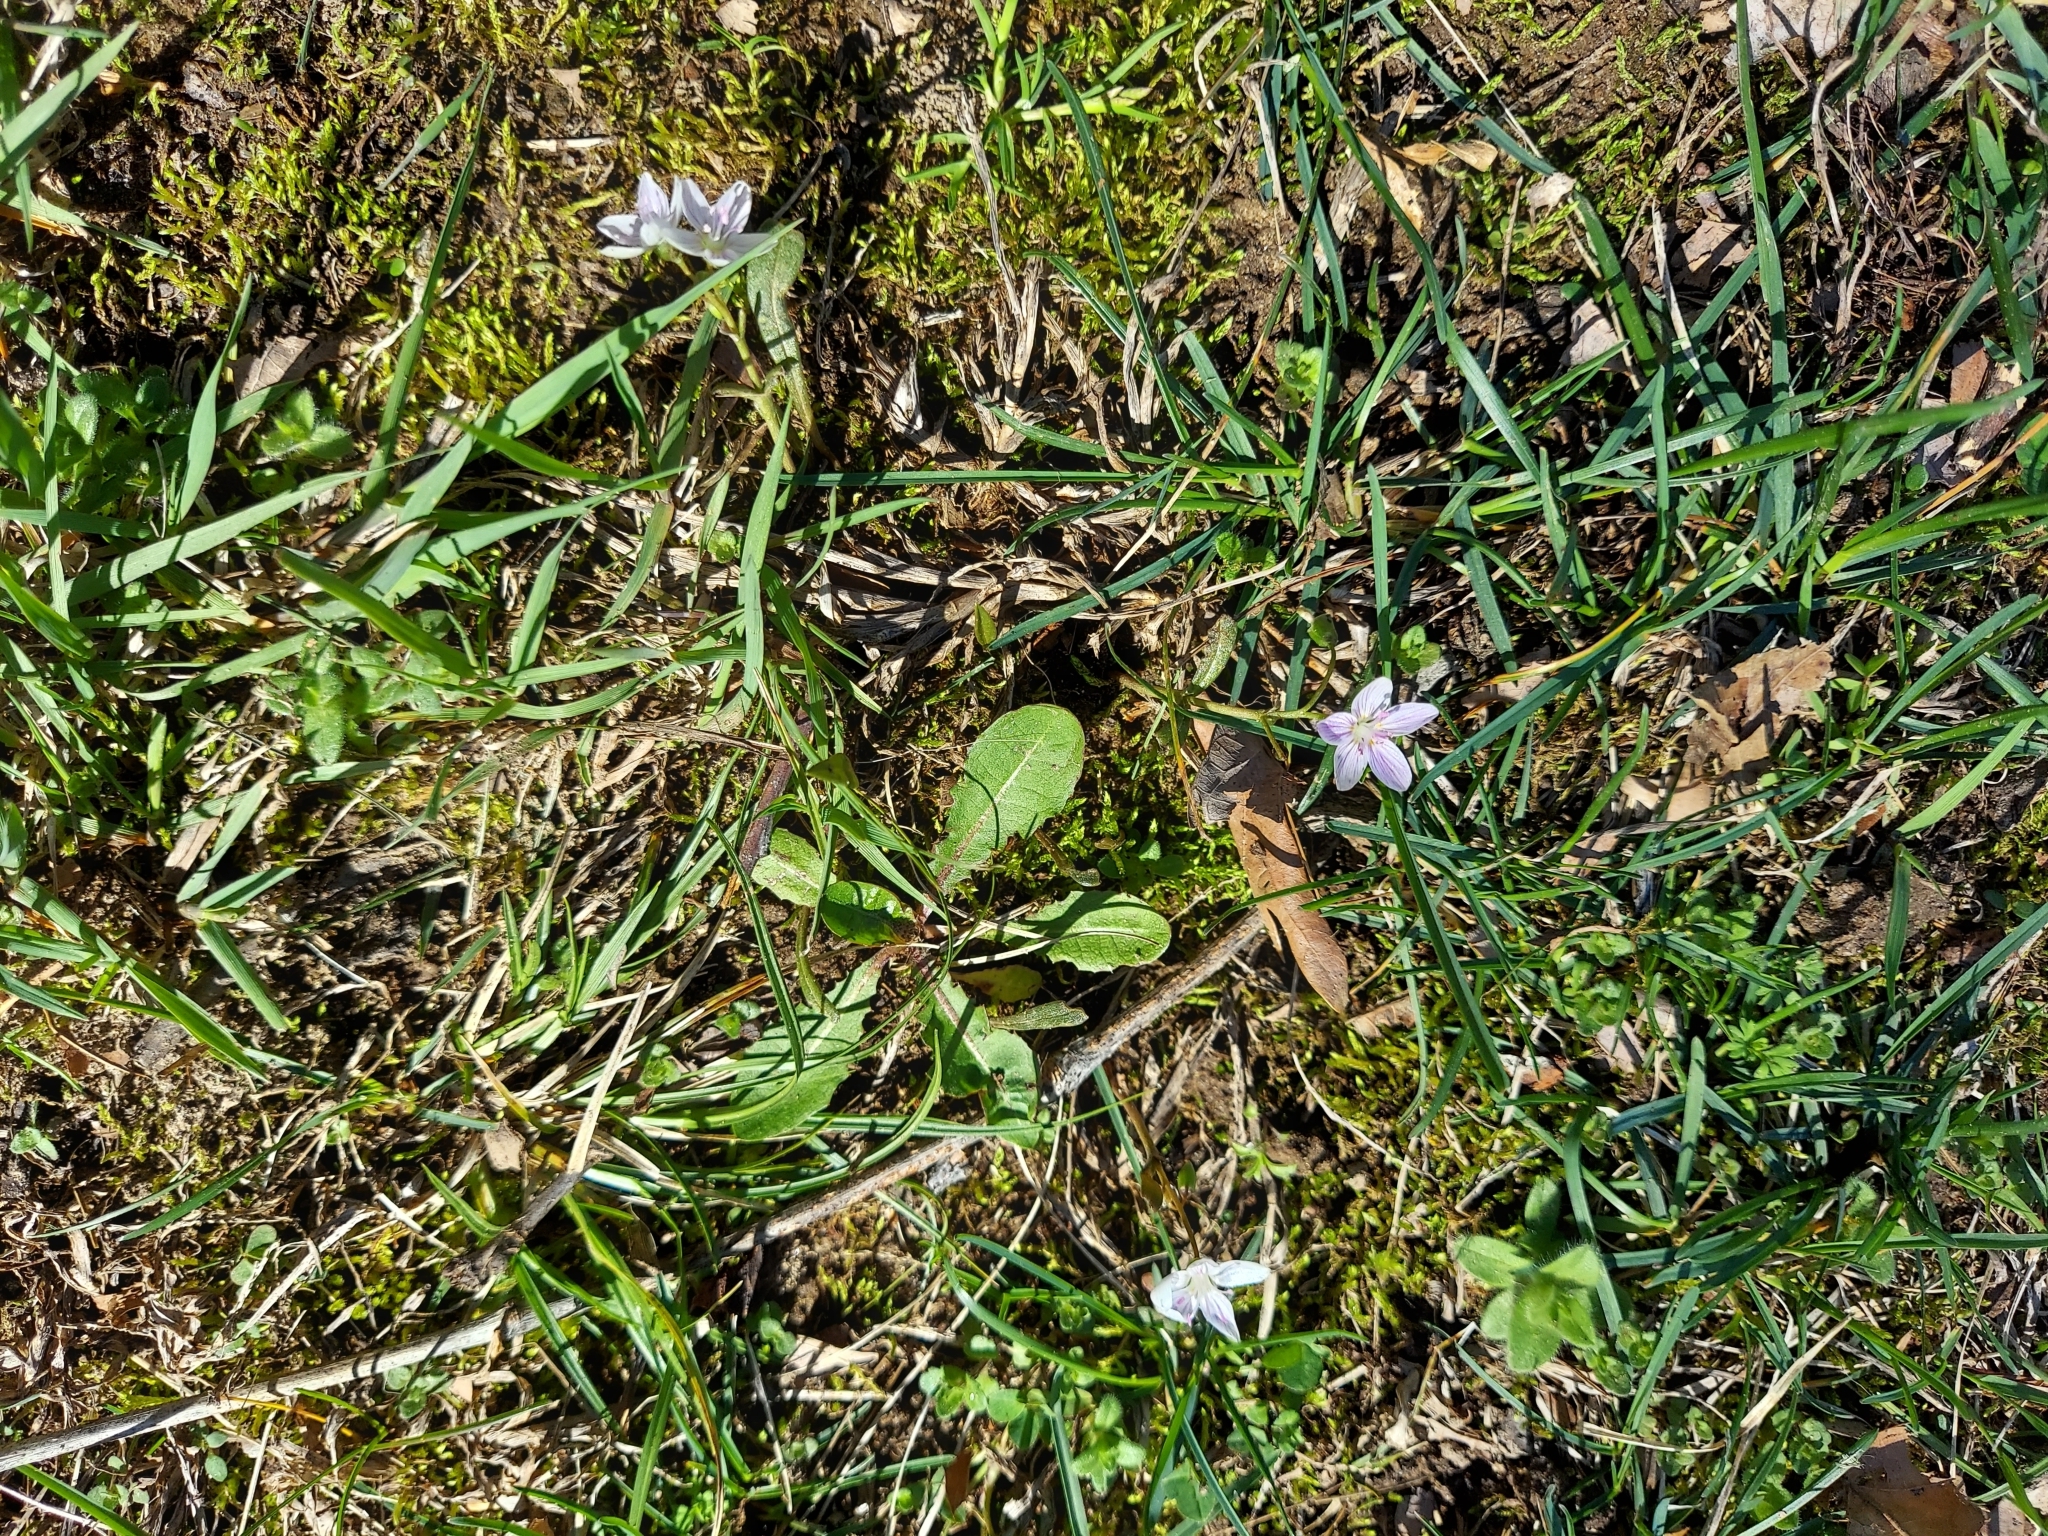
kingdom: Plantae
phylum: Tracheophyta
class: Magnoliopsida
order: Caryophyllales
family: Montiaceae
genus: Claytonia
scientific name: Claytonia virginica
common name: Virginia springbeauty
